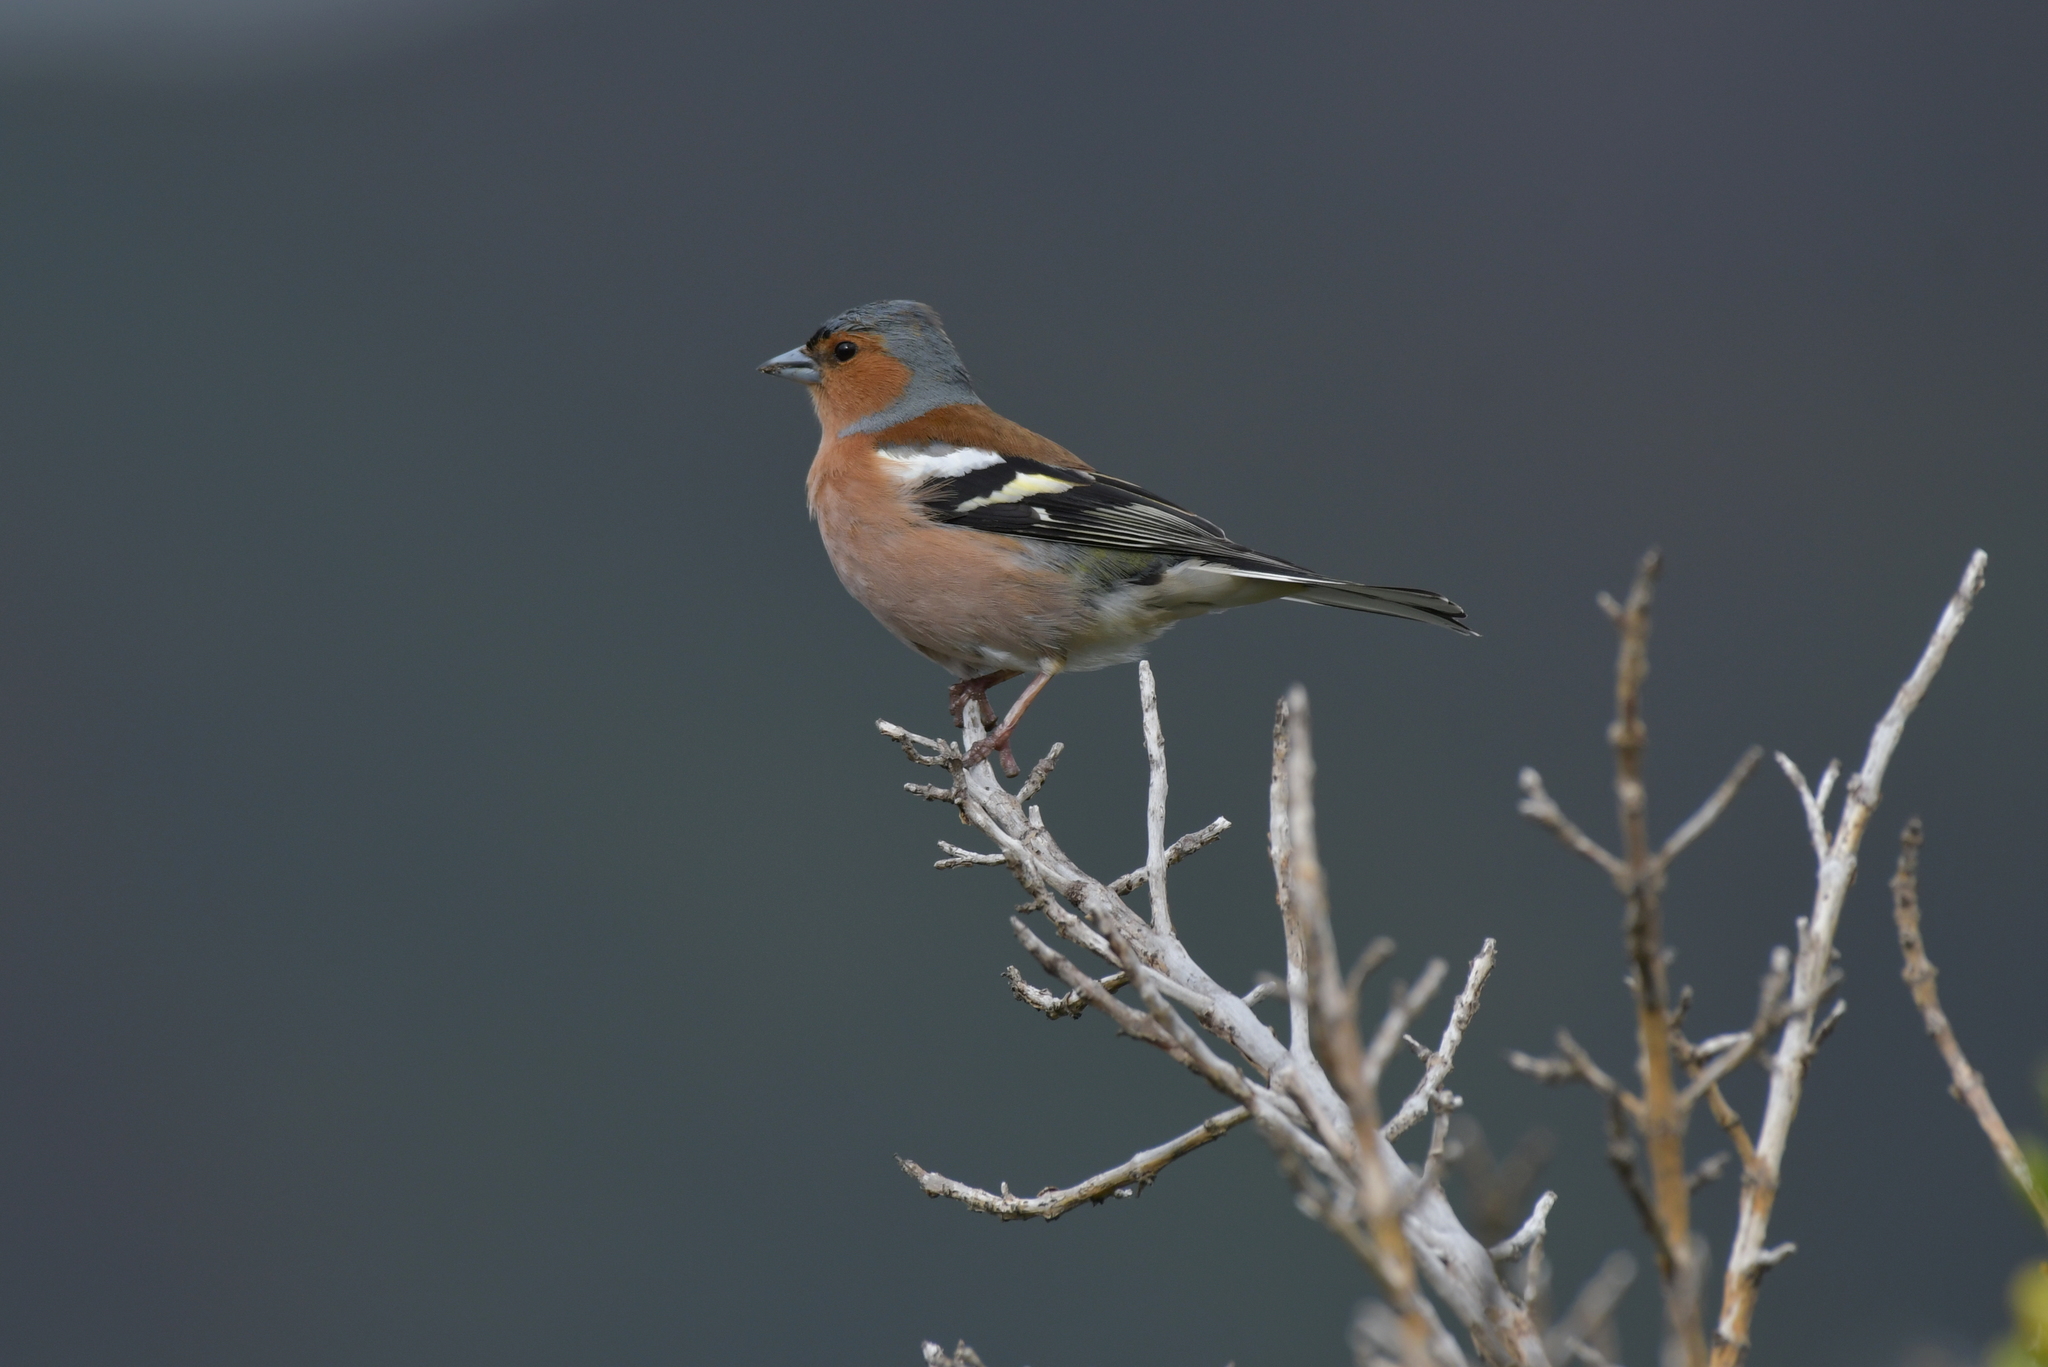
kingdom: Animalia
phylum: Chordata
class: Aves
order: Passeriformes
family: Fringillidae
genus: Fringilla
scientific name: Fringilla coelebs
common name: Common chaffinch
